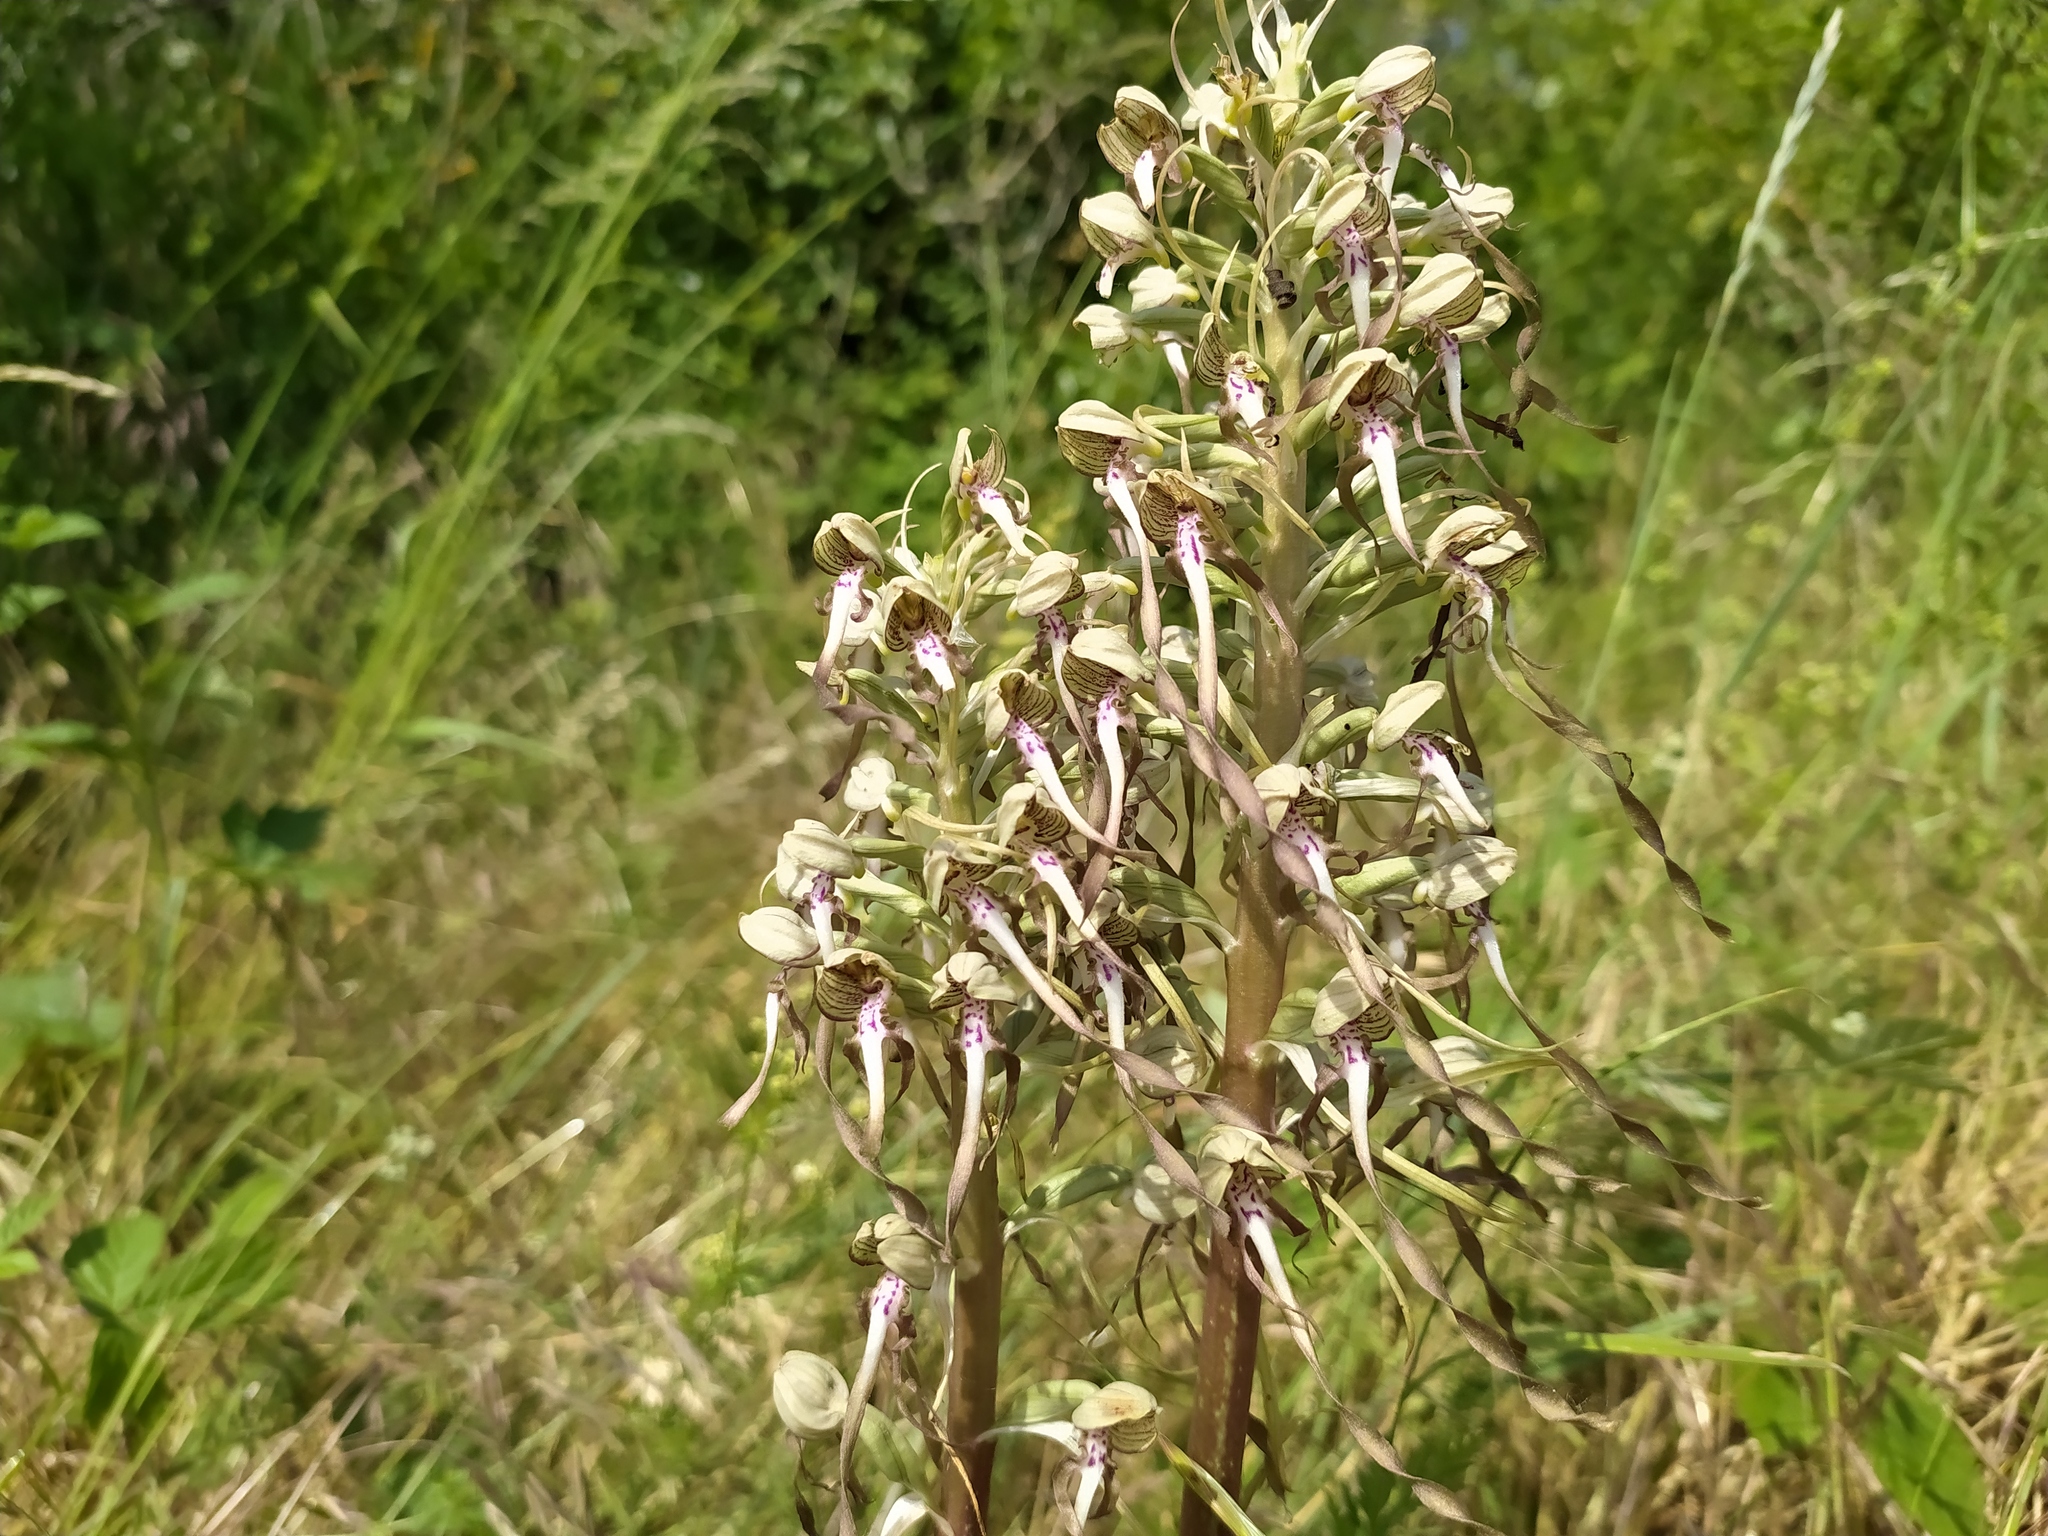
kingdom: Plantae
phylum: Tracheophyta
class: Liliopsida
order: Asparagales
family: Orchidaceae
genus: Himantoglossum
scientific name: Himantoglossum hircinum
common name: Lizard orchid
